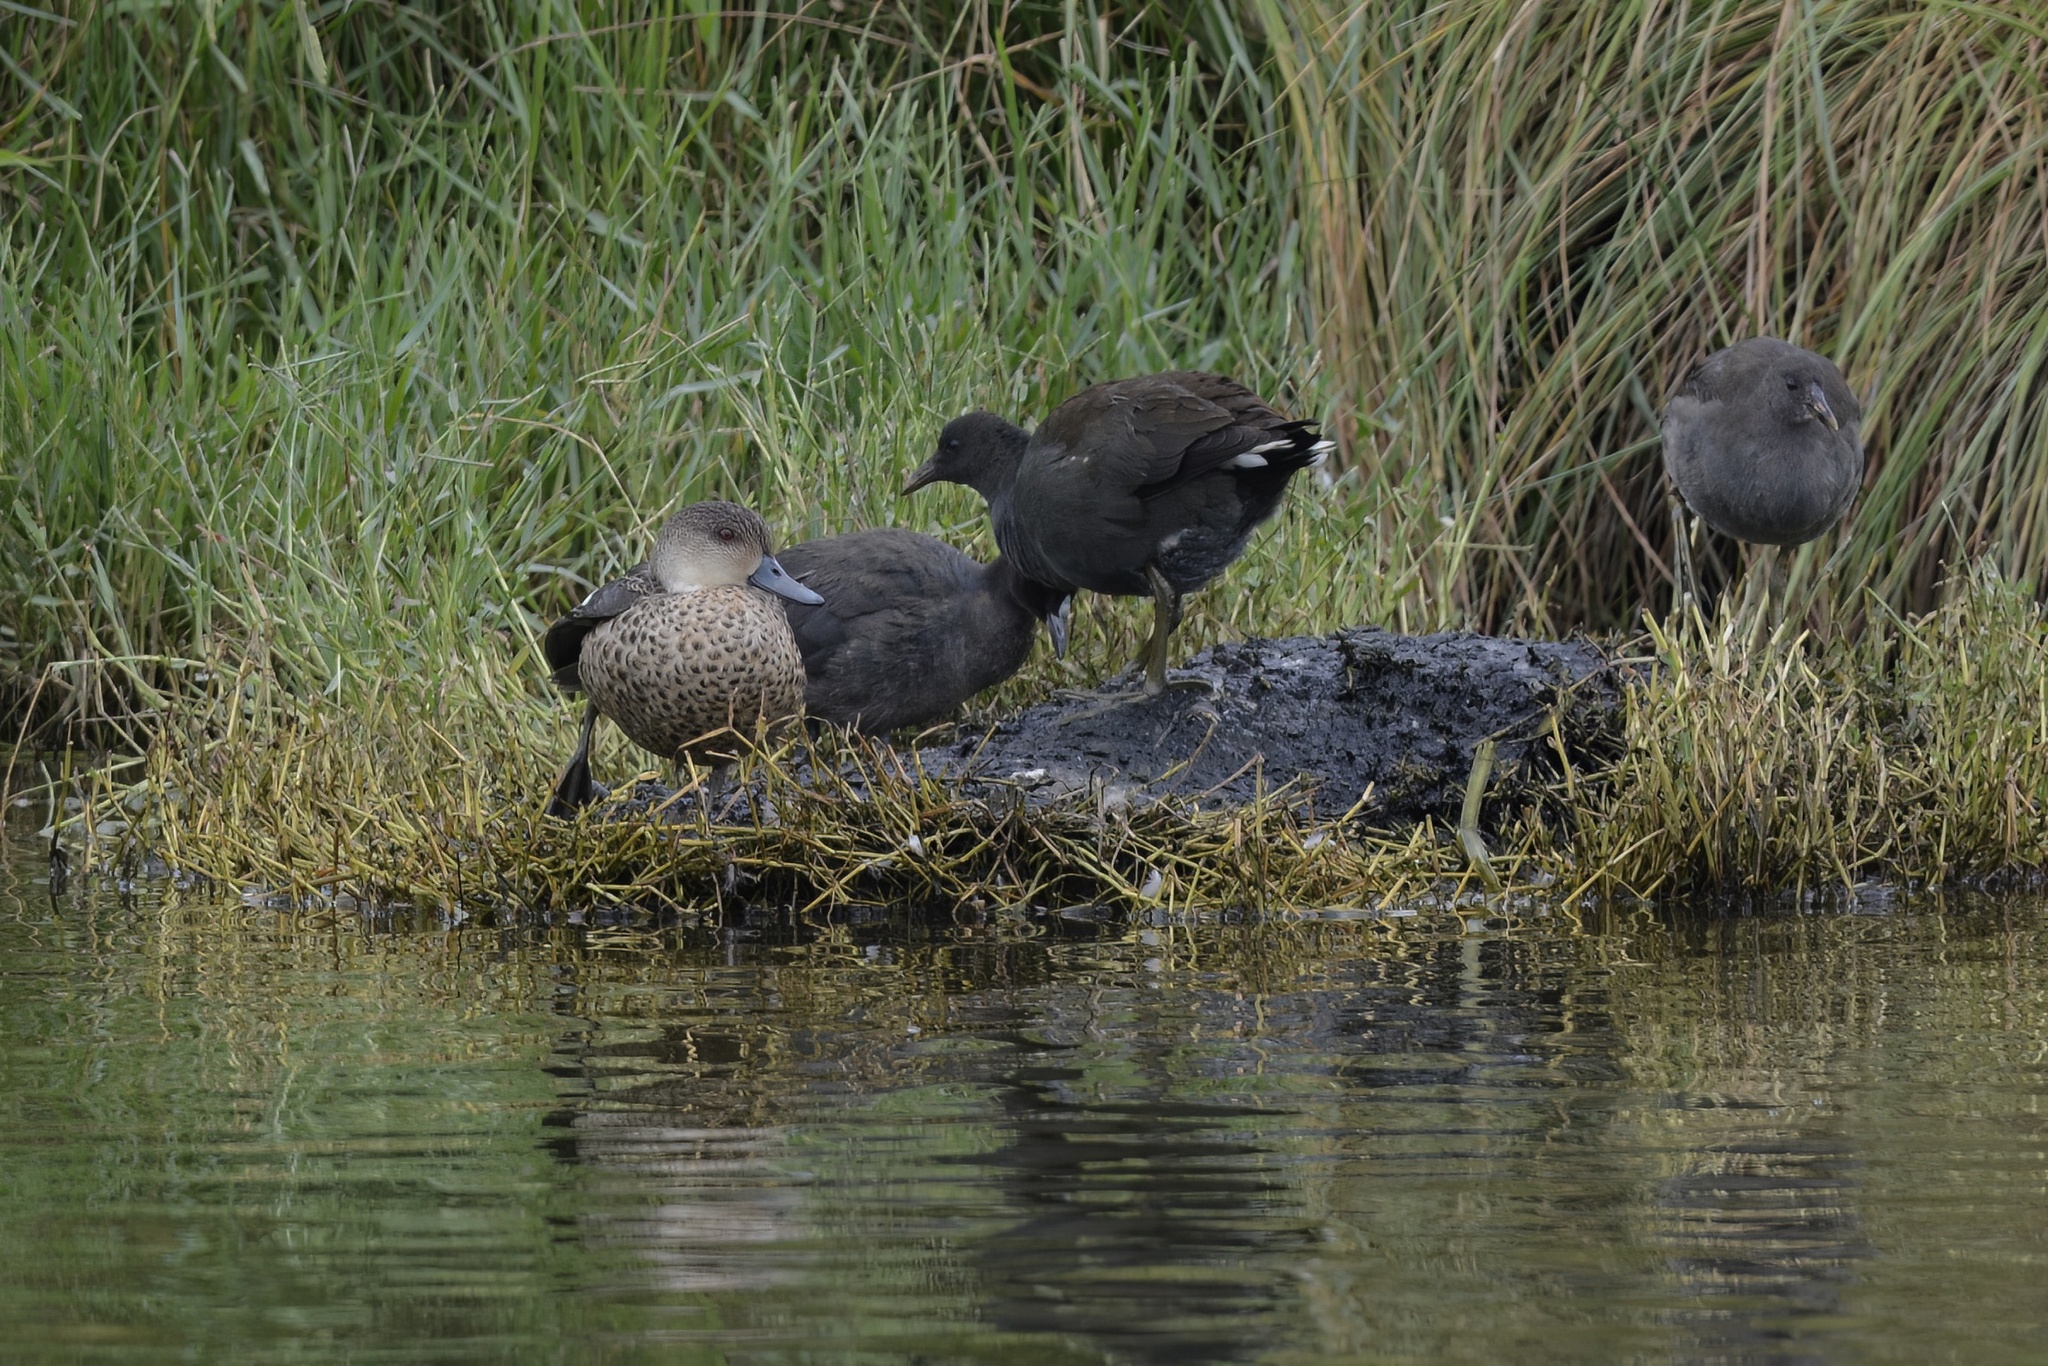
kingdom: Animalia
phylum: Chordata
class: Aves
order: Anseriformes
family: Anatidae
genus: Anas
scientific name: Anas gracilis
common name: Grey teal
